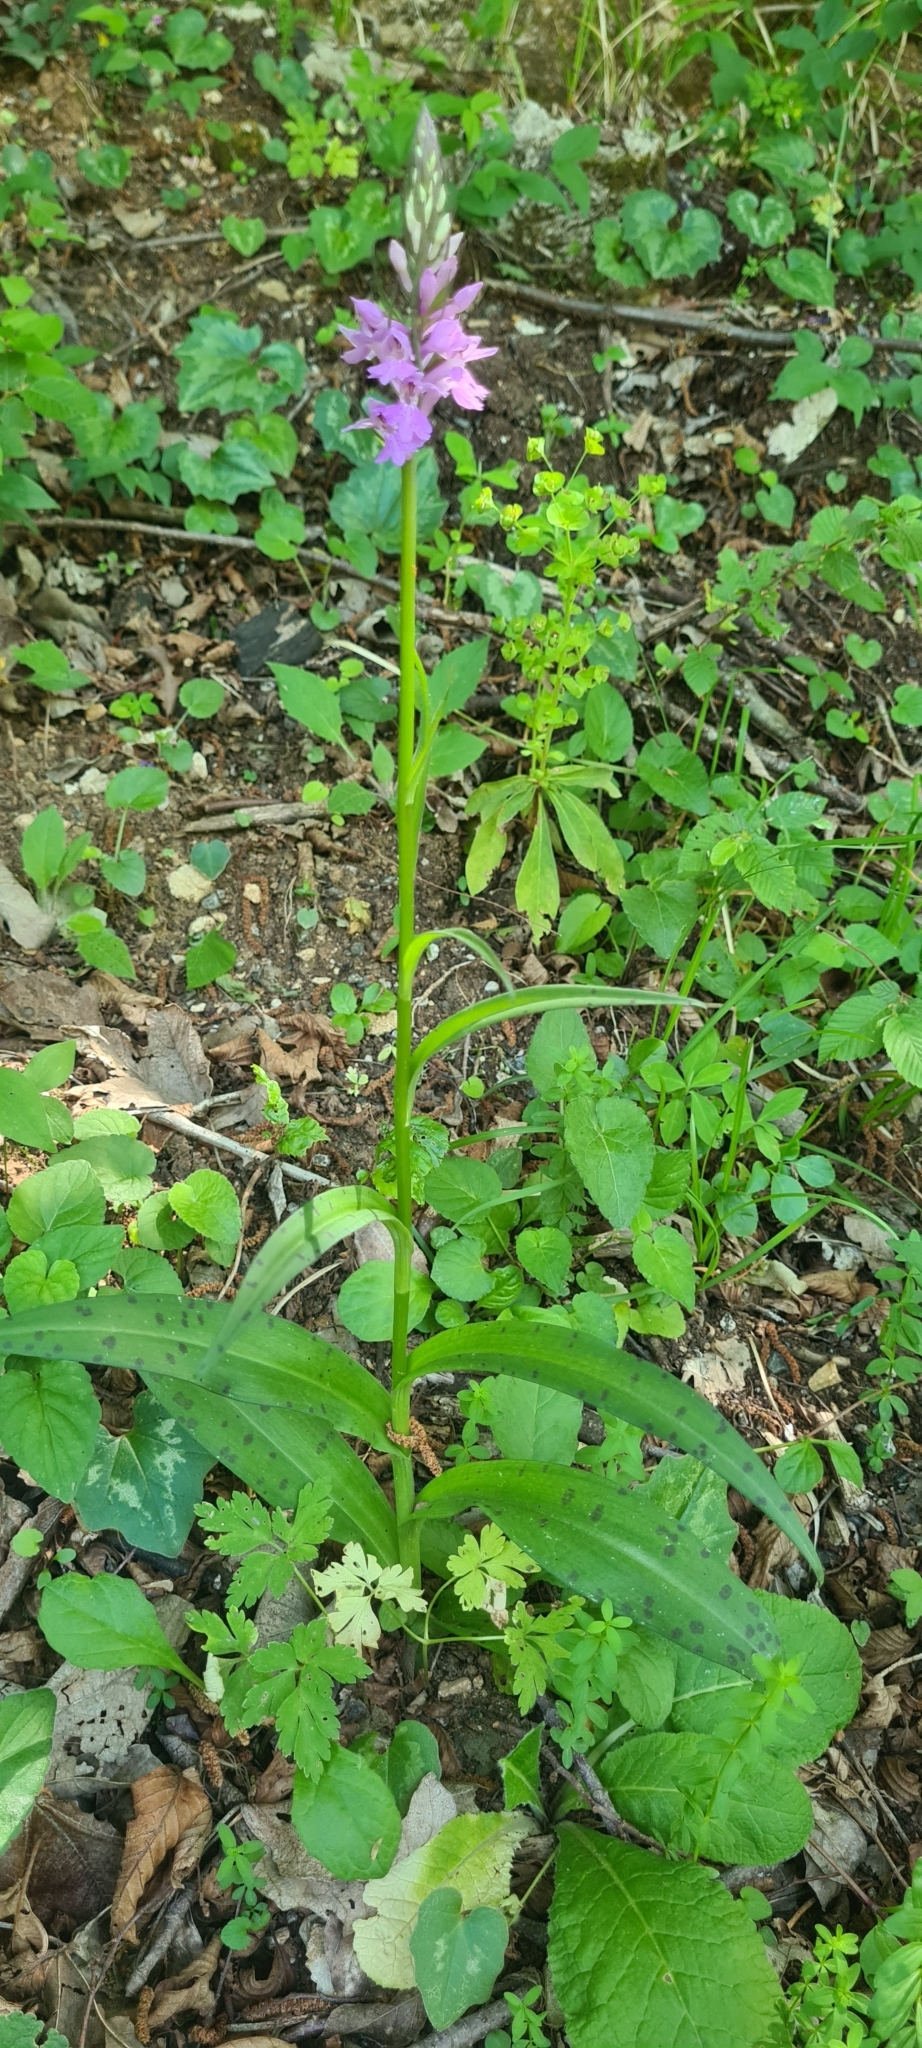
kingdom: Plantae
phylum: Tracheophyta
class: Liliopsida
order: Asparagales
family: Orchidaceae
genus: Dactylorhiza
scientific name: Dactylorhiza maculata
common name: Heath spotted-orchid
